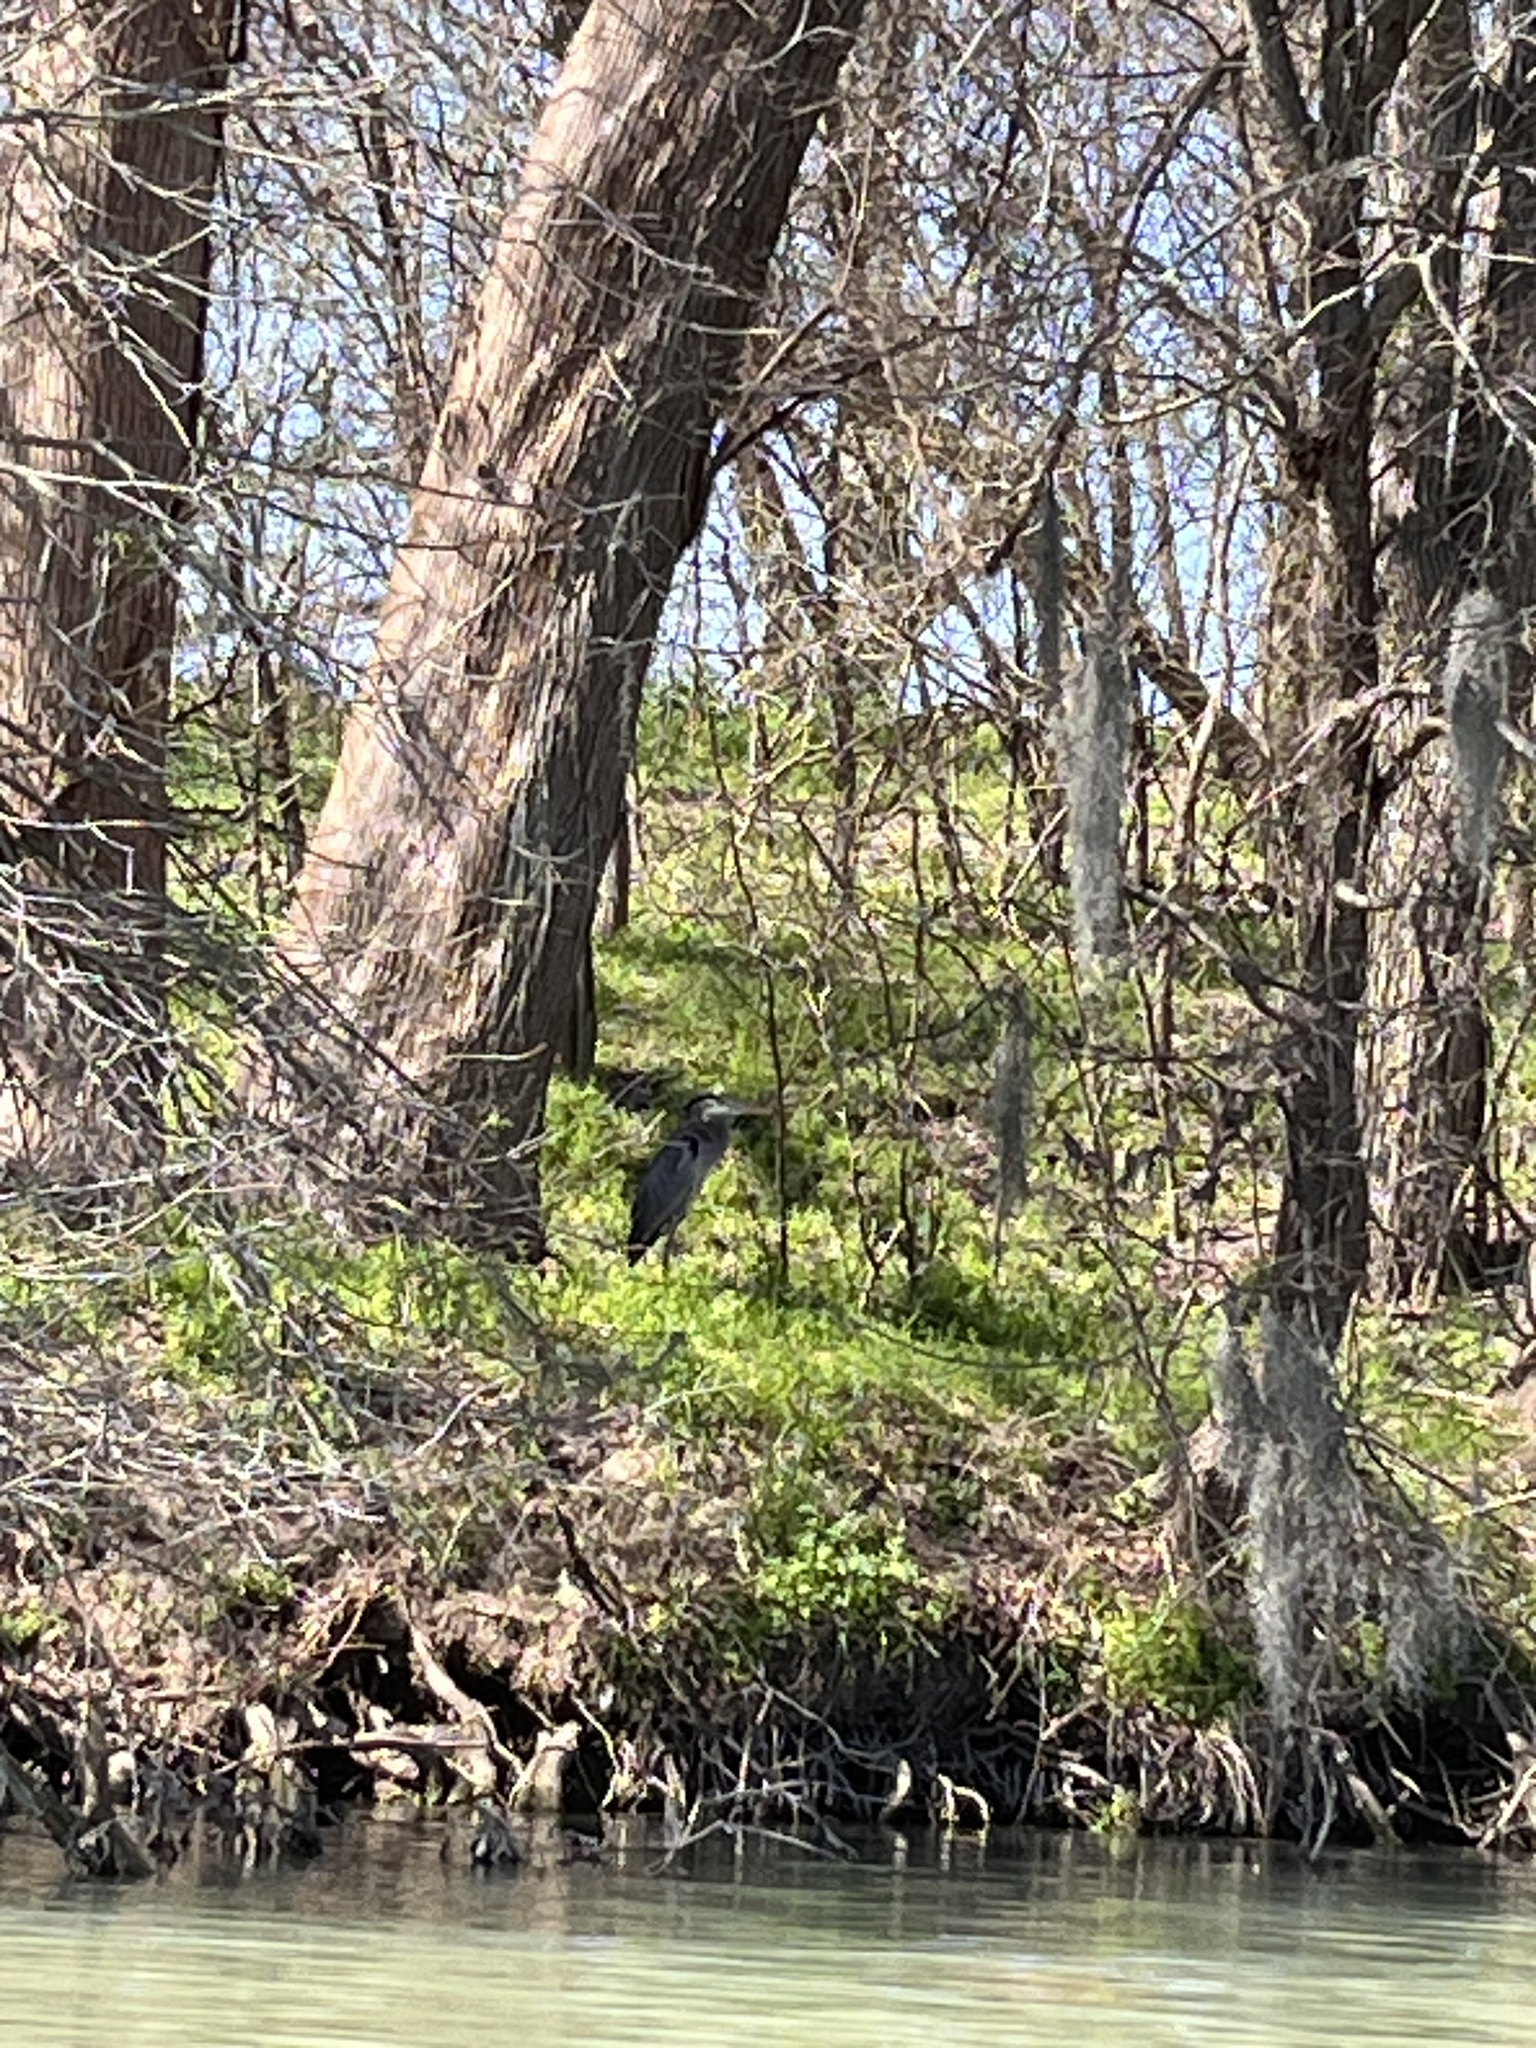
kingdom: Animalia
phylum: Chordata
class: Aves
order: Pelecaniformes
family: Ardeidae
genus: Ardea
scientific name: Ardea herodias
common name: Great blue heron
